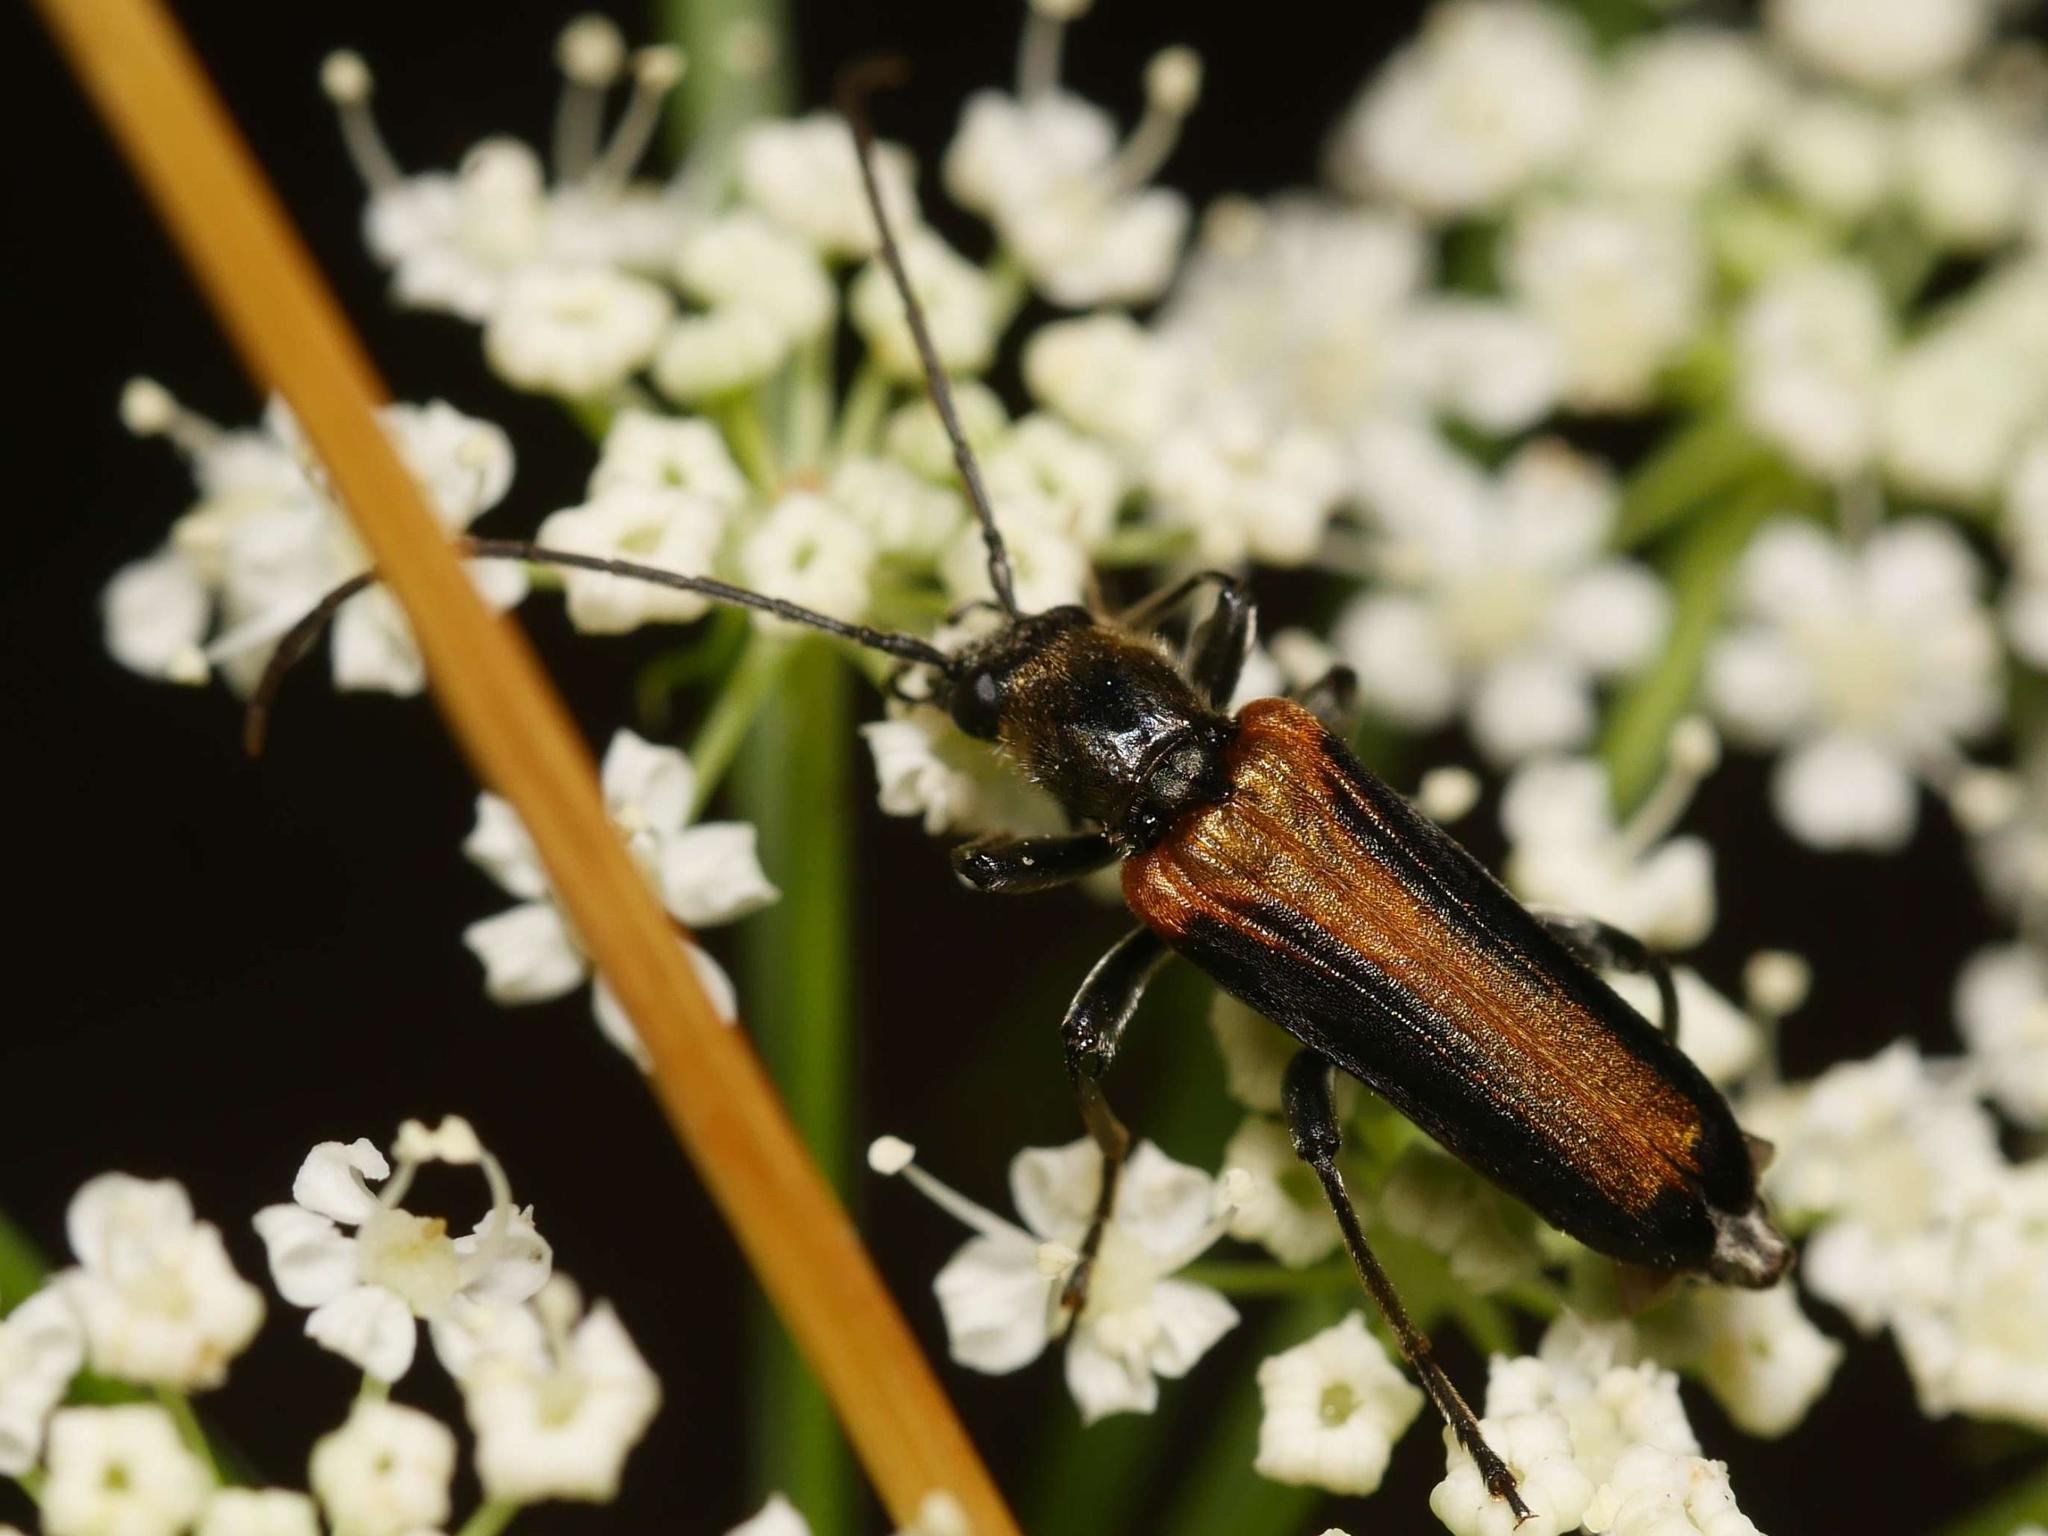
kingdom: Animalia
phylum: Arthropoda
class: Insecta
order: Coleoptera
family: Oedemeridae
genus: Anogcodes
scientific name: Anogcodes ustulatus
